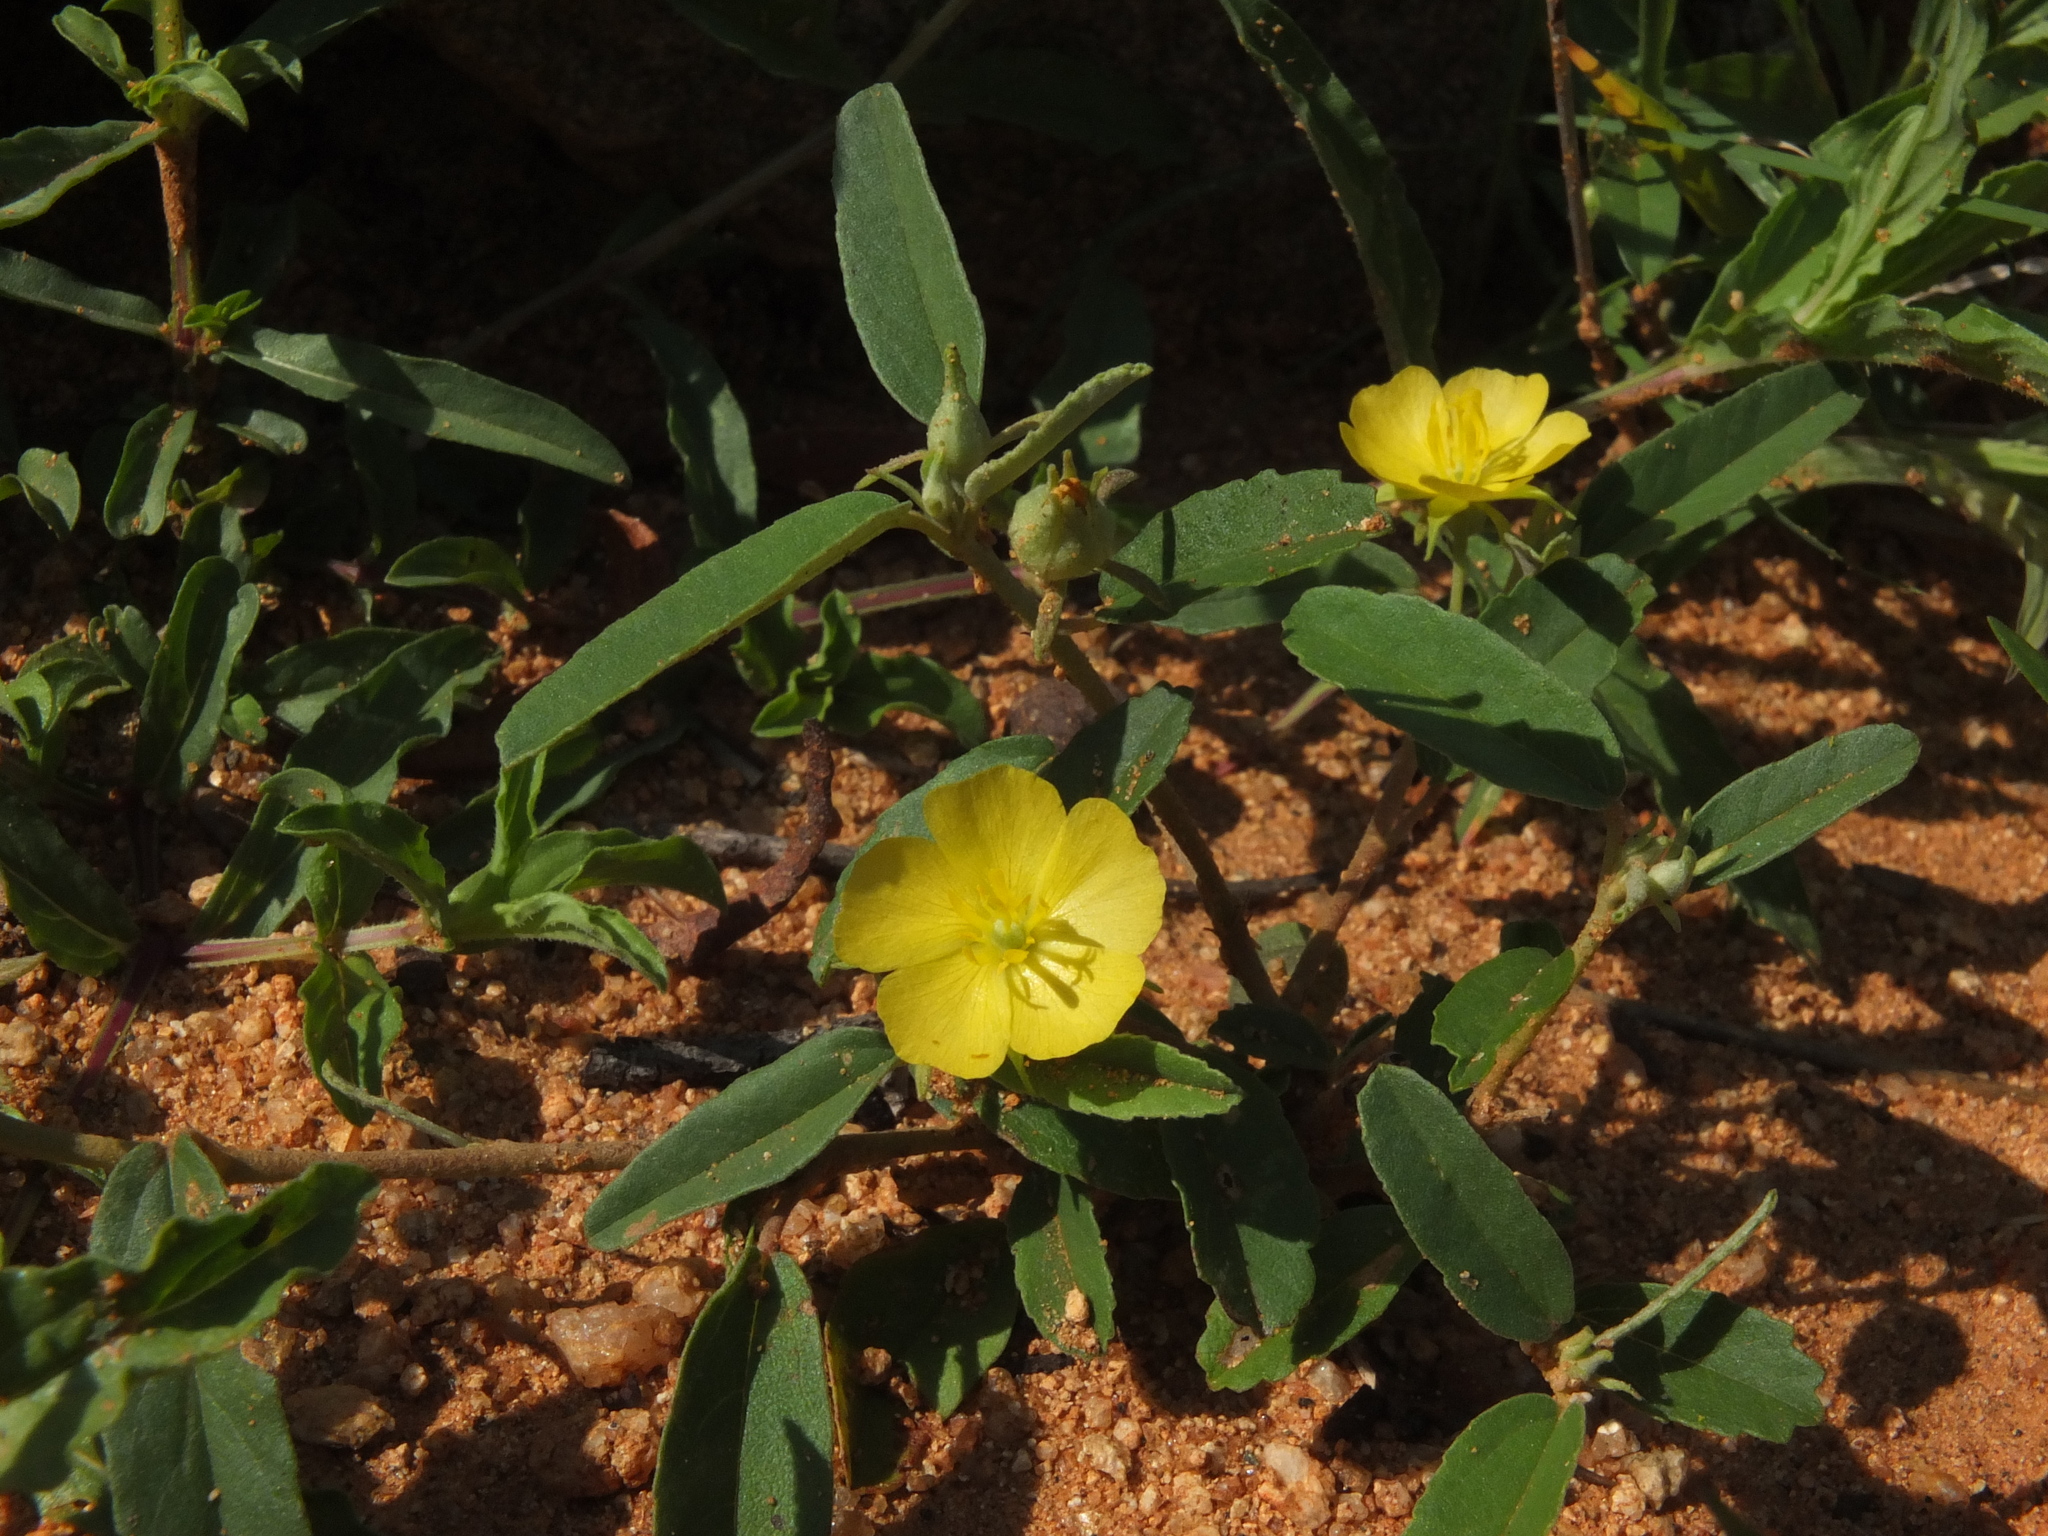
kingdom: Plantae
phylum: Tracheophyta
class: Magnoliopsida
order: Malvales
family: Malvaceae
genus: Melhania
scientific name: Melhania incana
